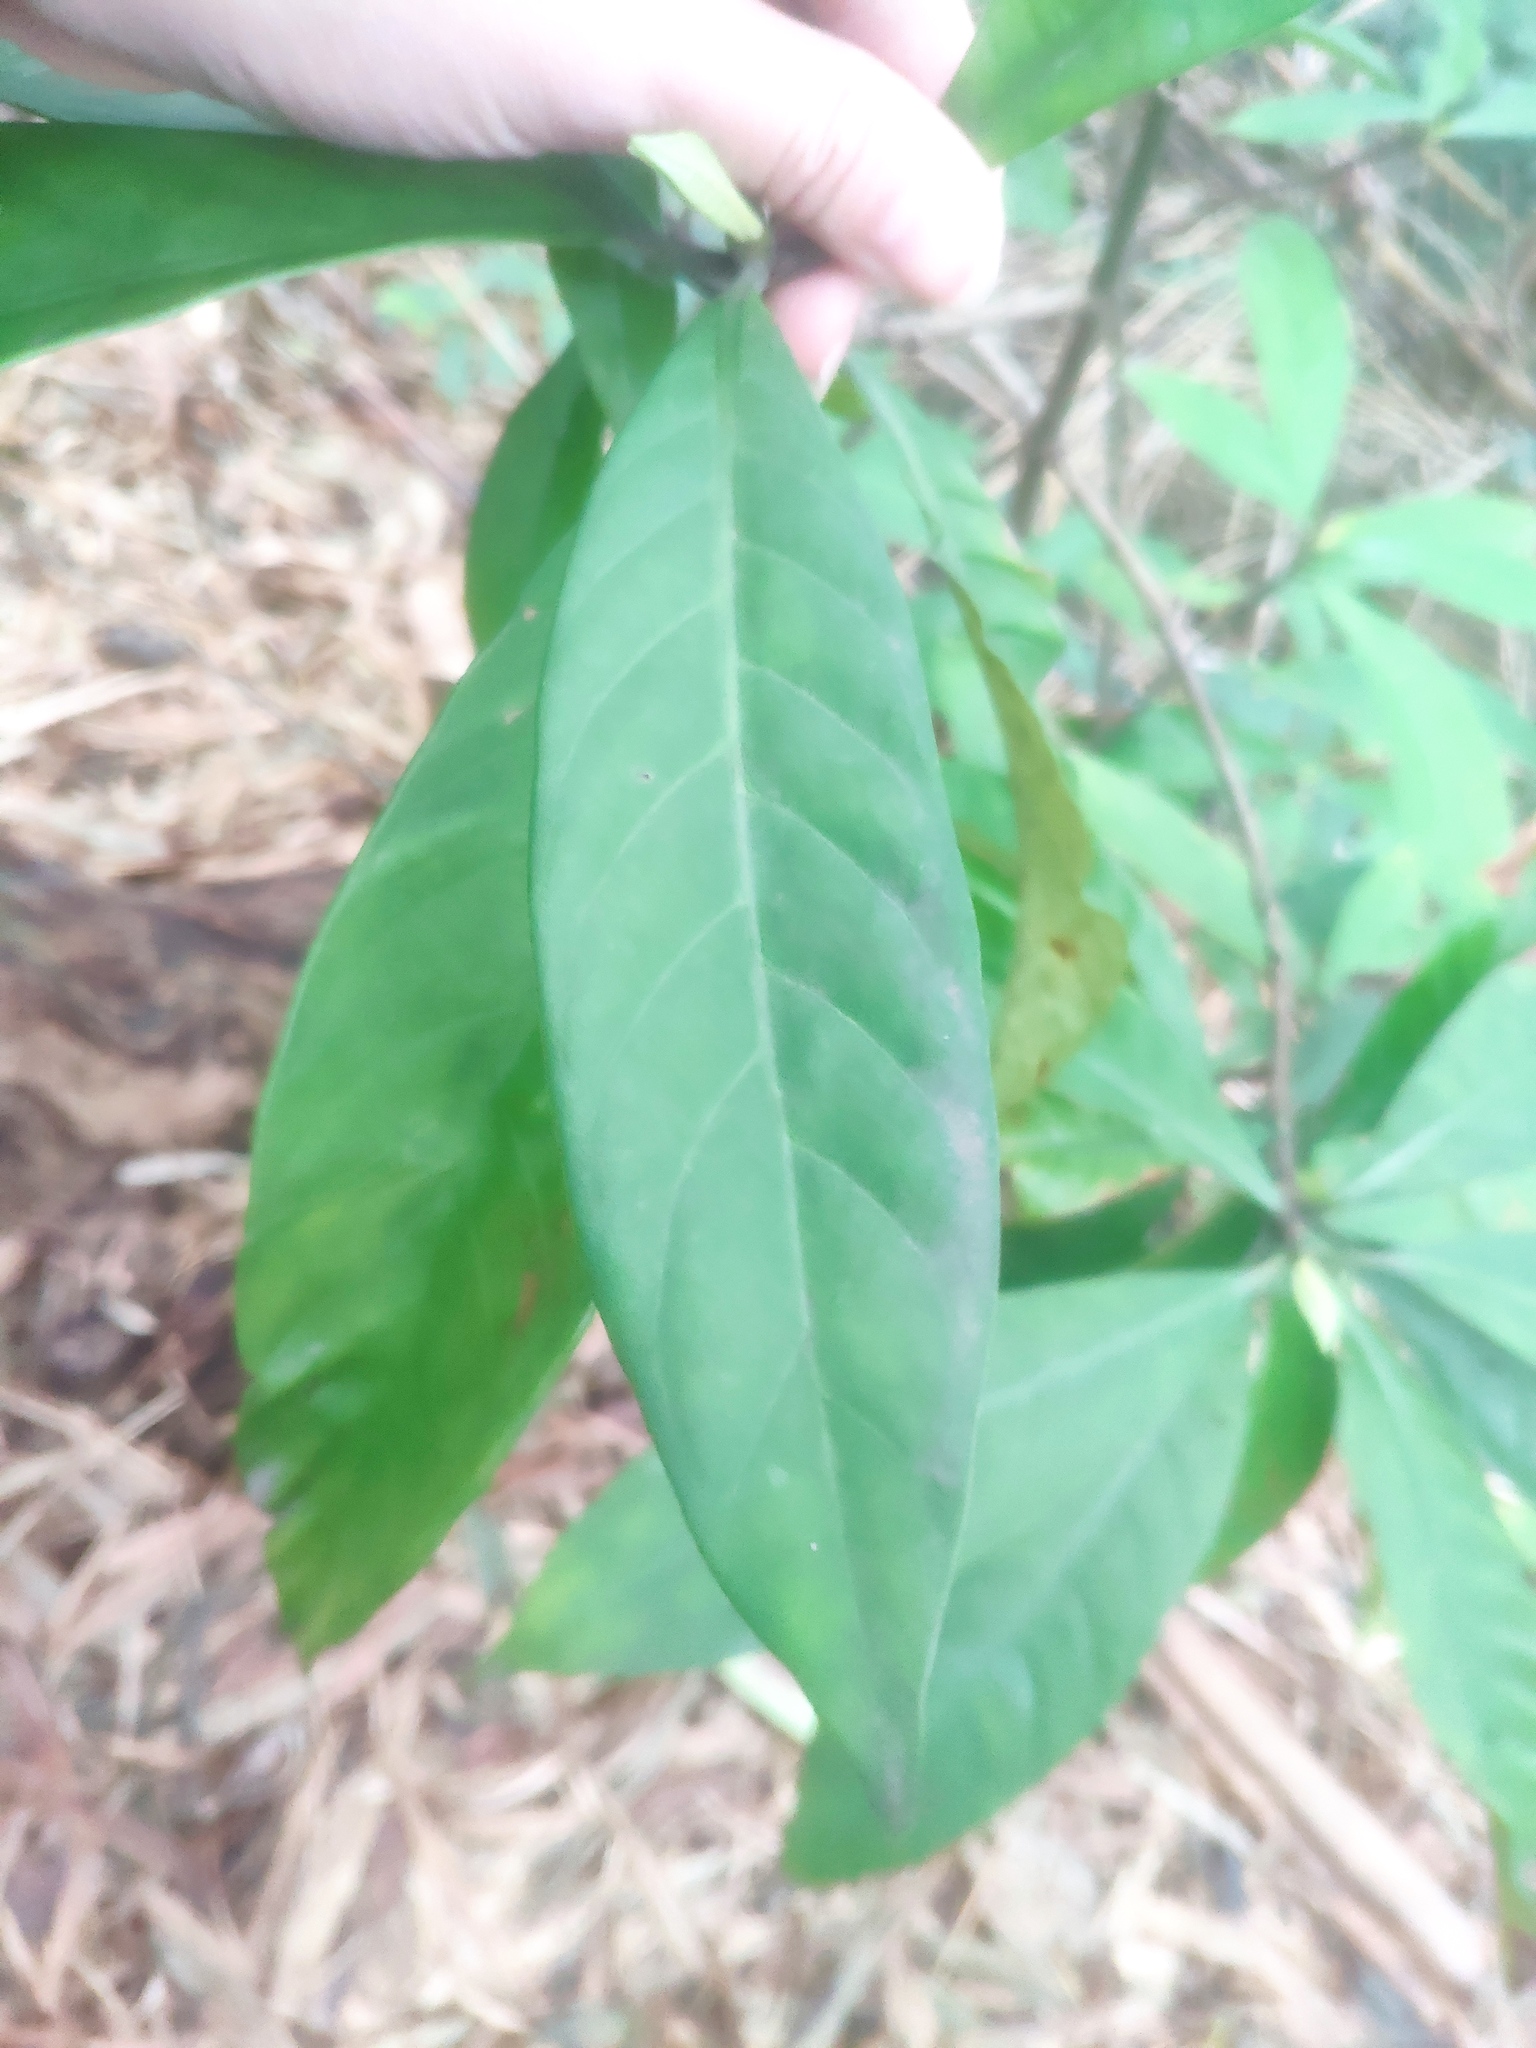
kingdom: Plantae
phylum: Tracheophyta
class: Magnoliopsida
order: Gentianales
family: Rubiaceae
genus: Psychotria
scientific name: Psychotria asiatica
